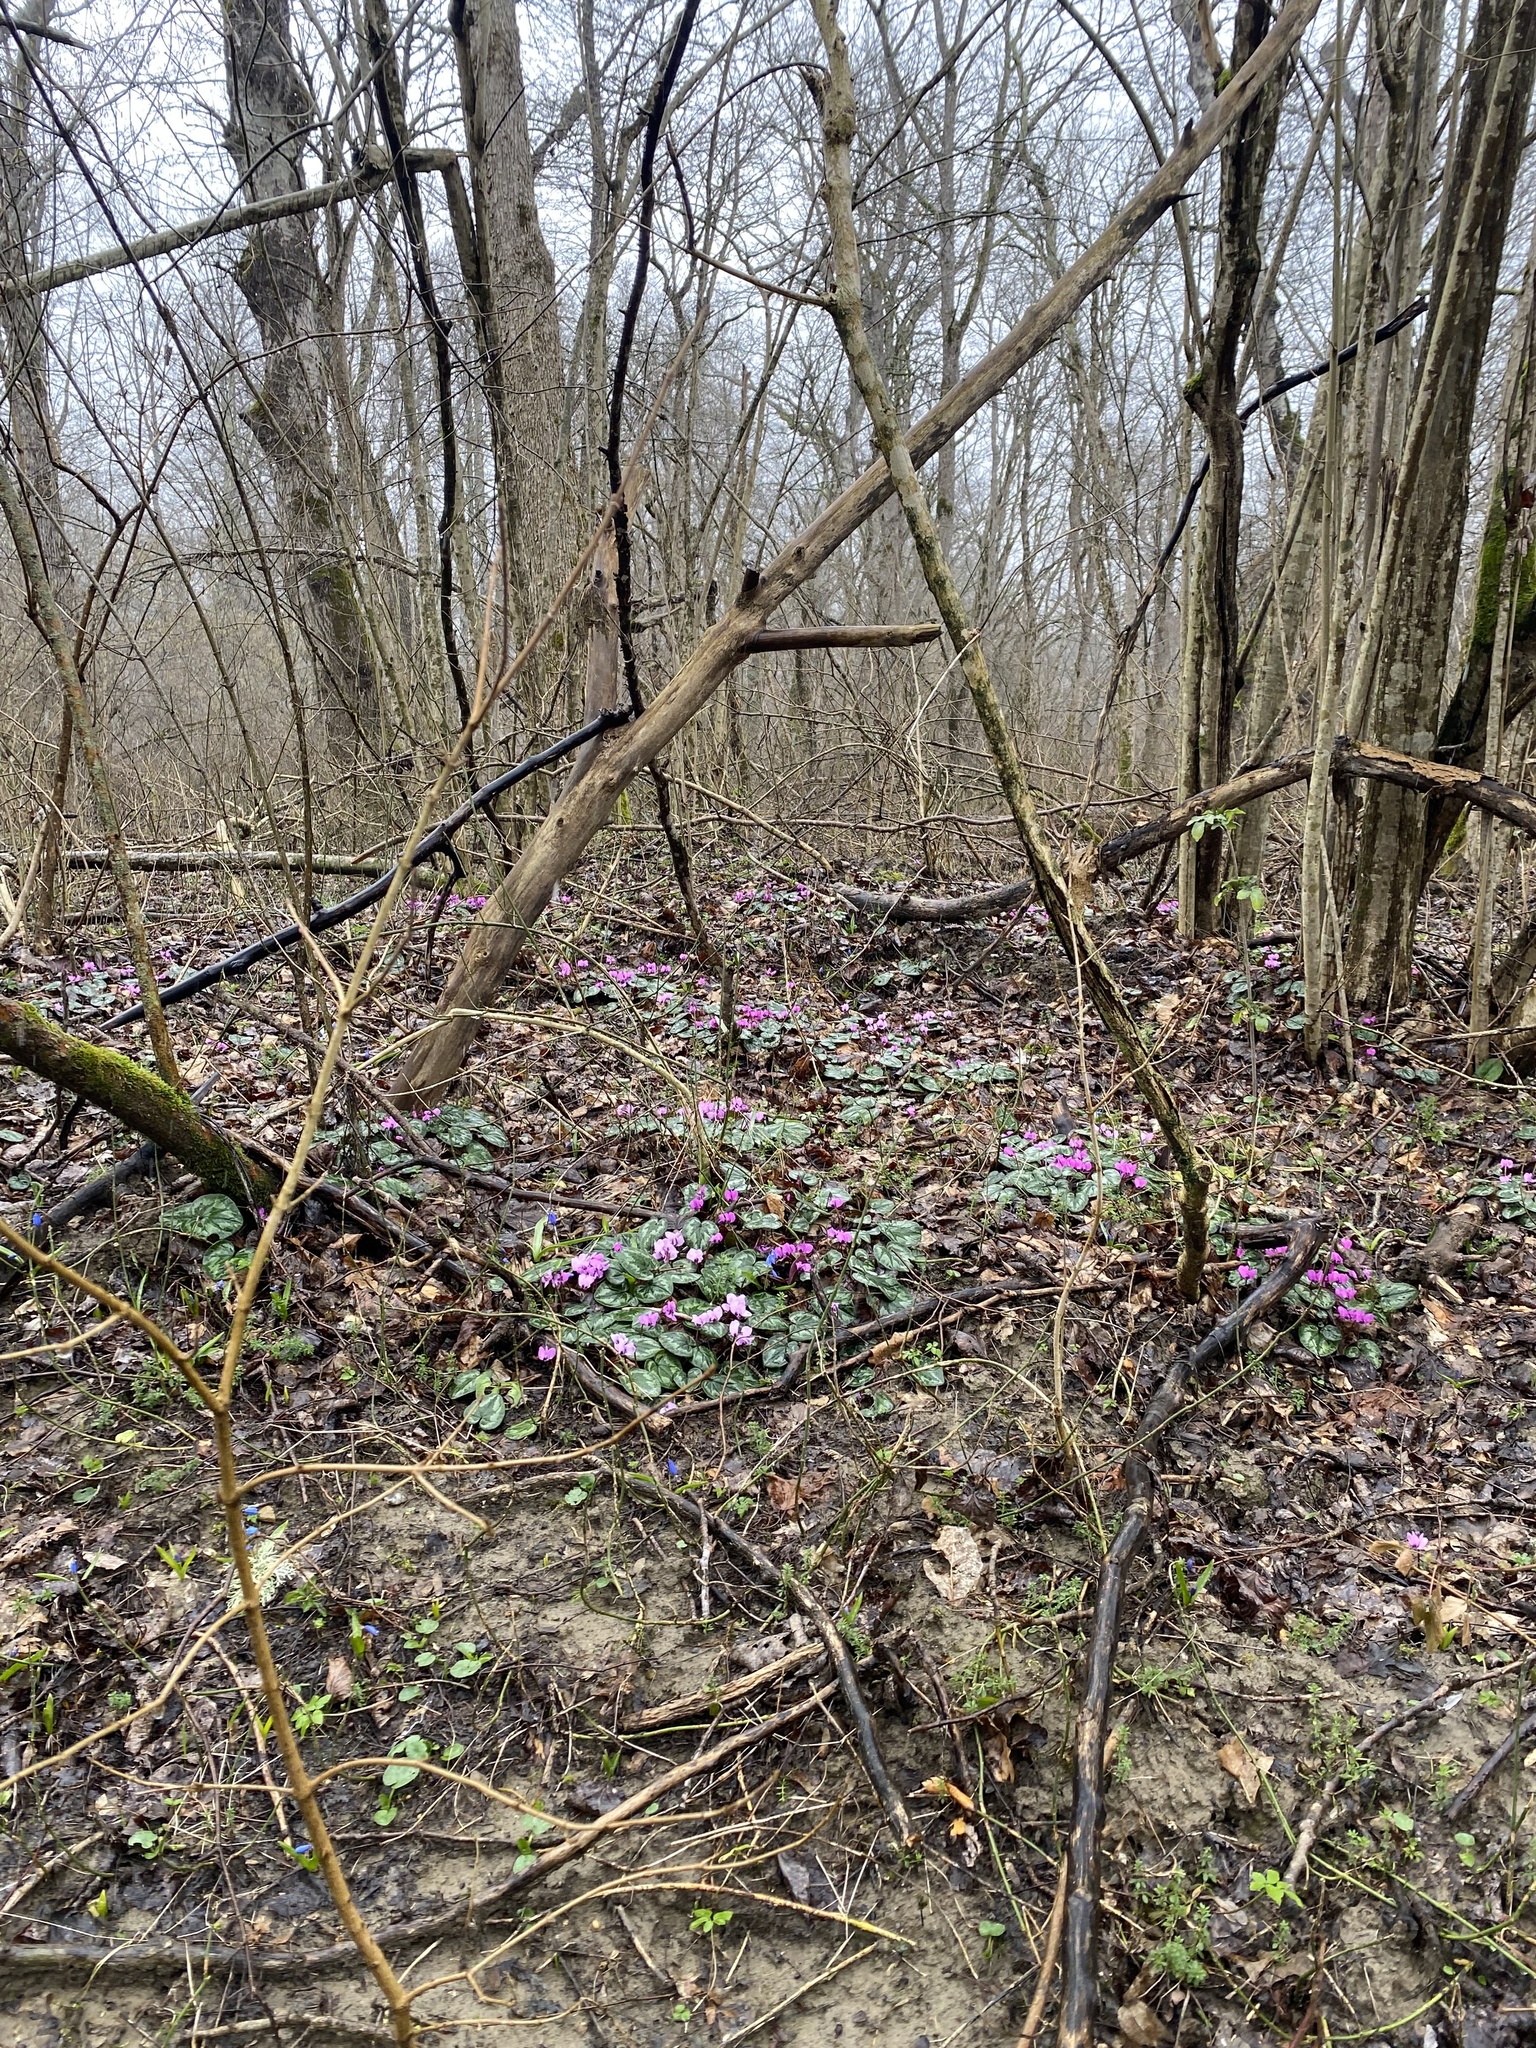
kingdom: Plantae
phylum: Tracheophyta
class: Magnoliopsida
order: Ericales
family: Primulaceae
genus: Cyclamen
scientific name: Cyclamen coum
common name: Eastern sowbread
